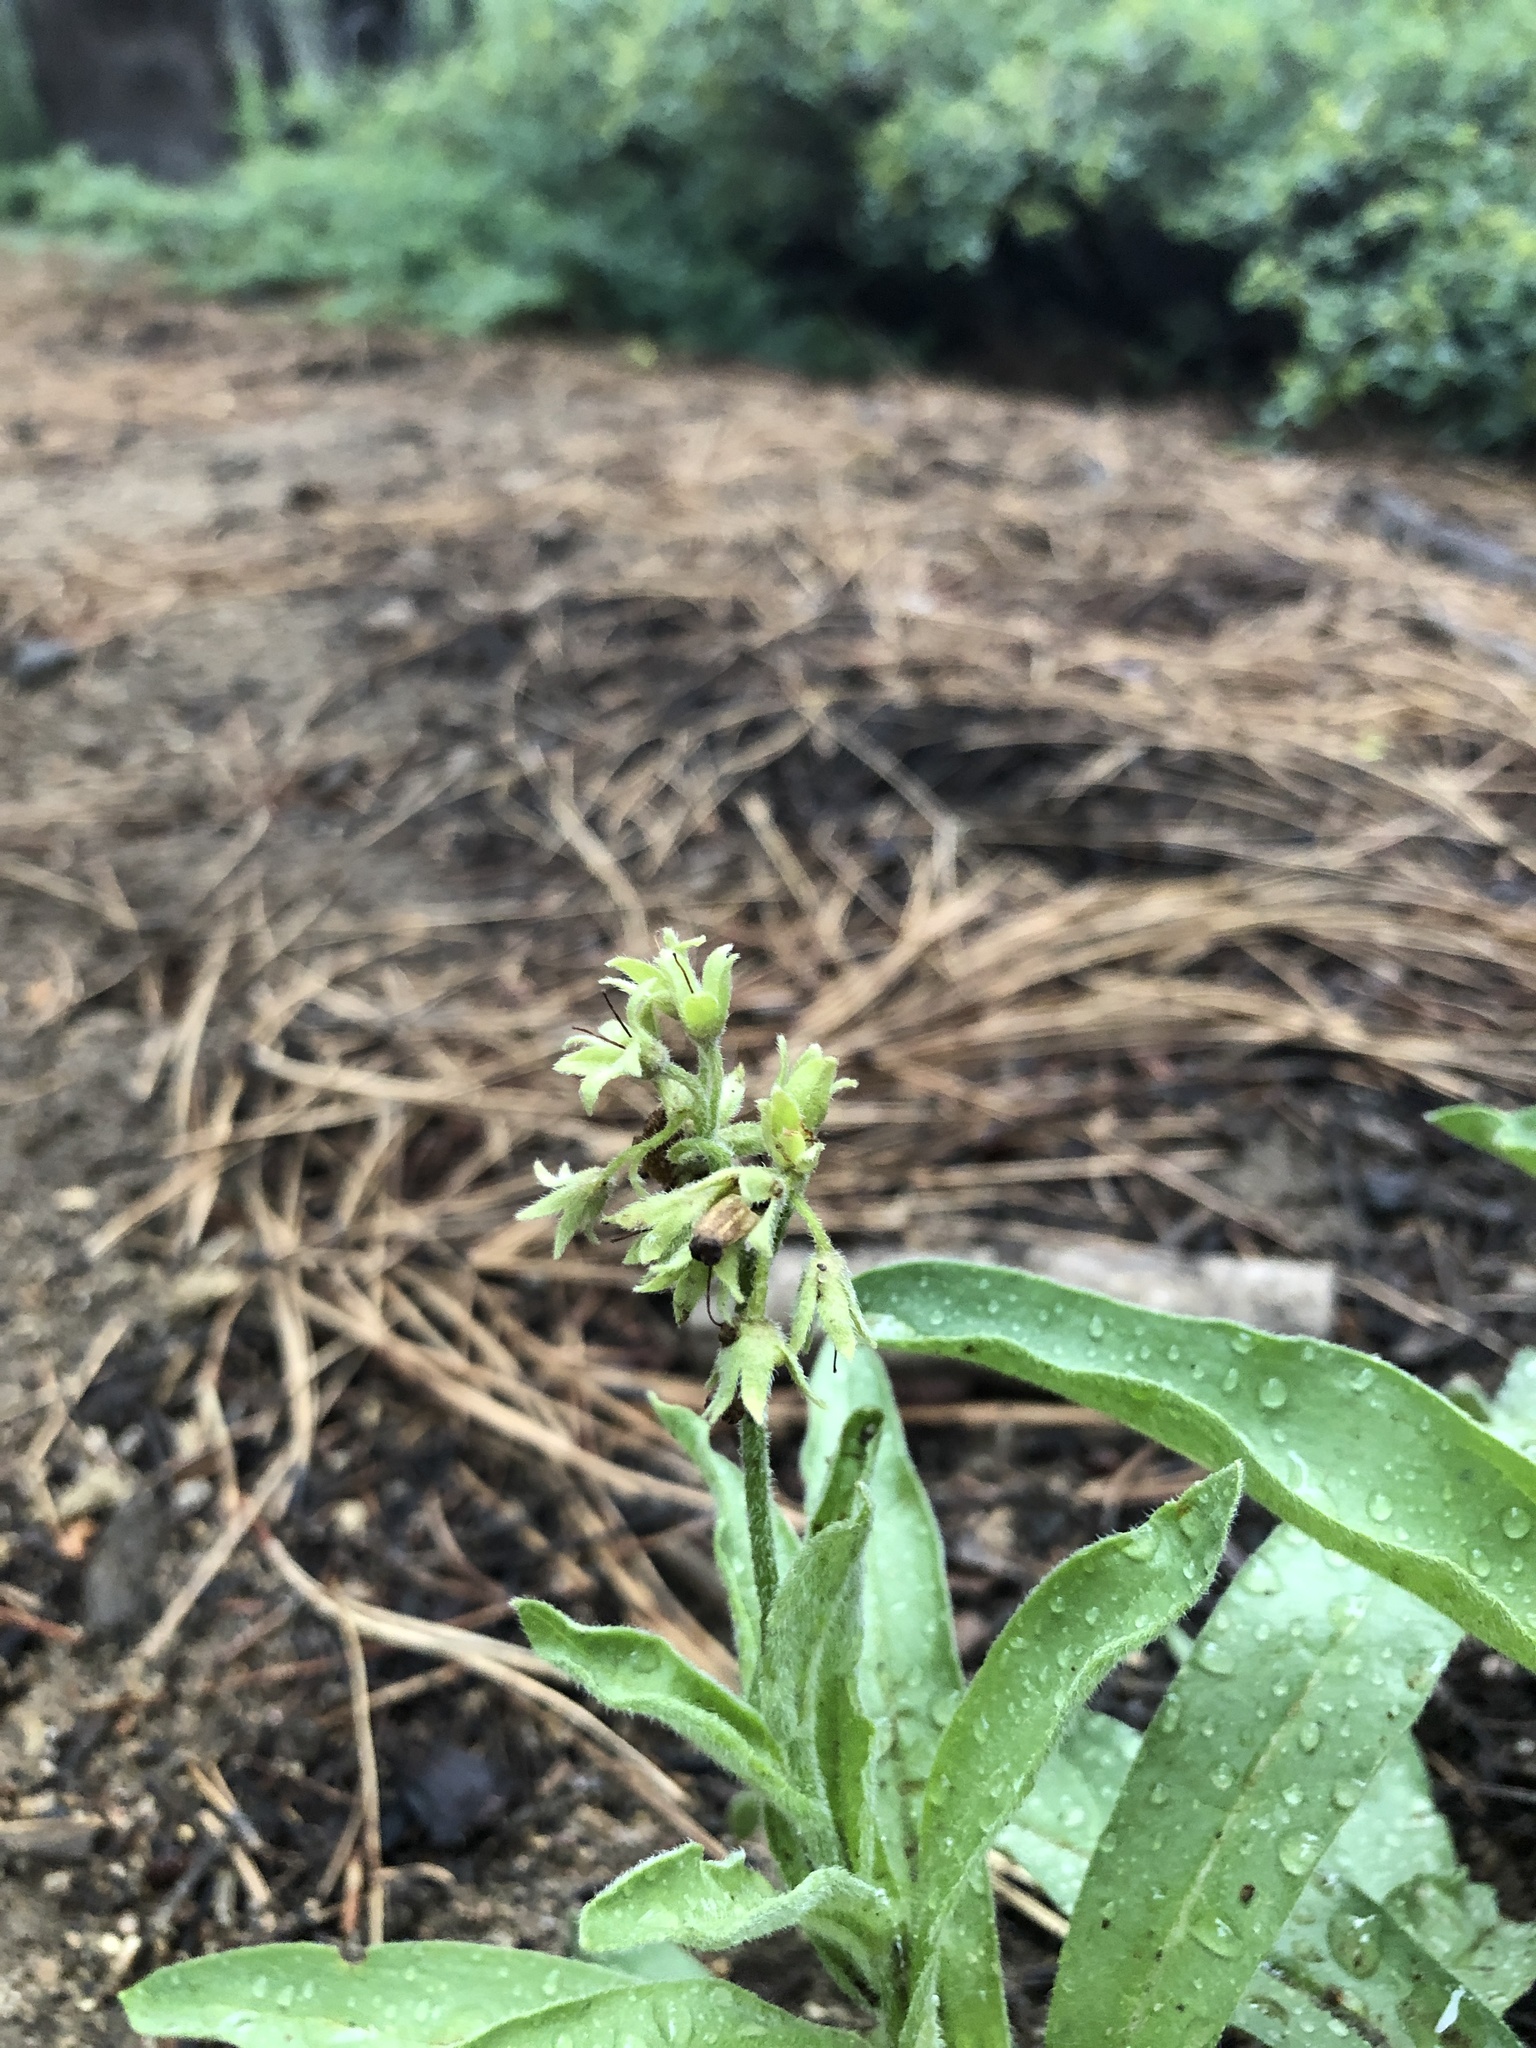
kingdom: Plantae
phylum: Tracheophyta
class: Magnoliopsida
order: Boraginales
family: Boraginaceae
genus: Andersonglossum
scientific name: Andersonglossum occidentale
